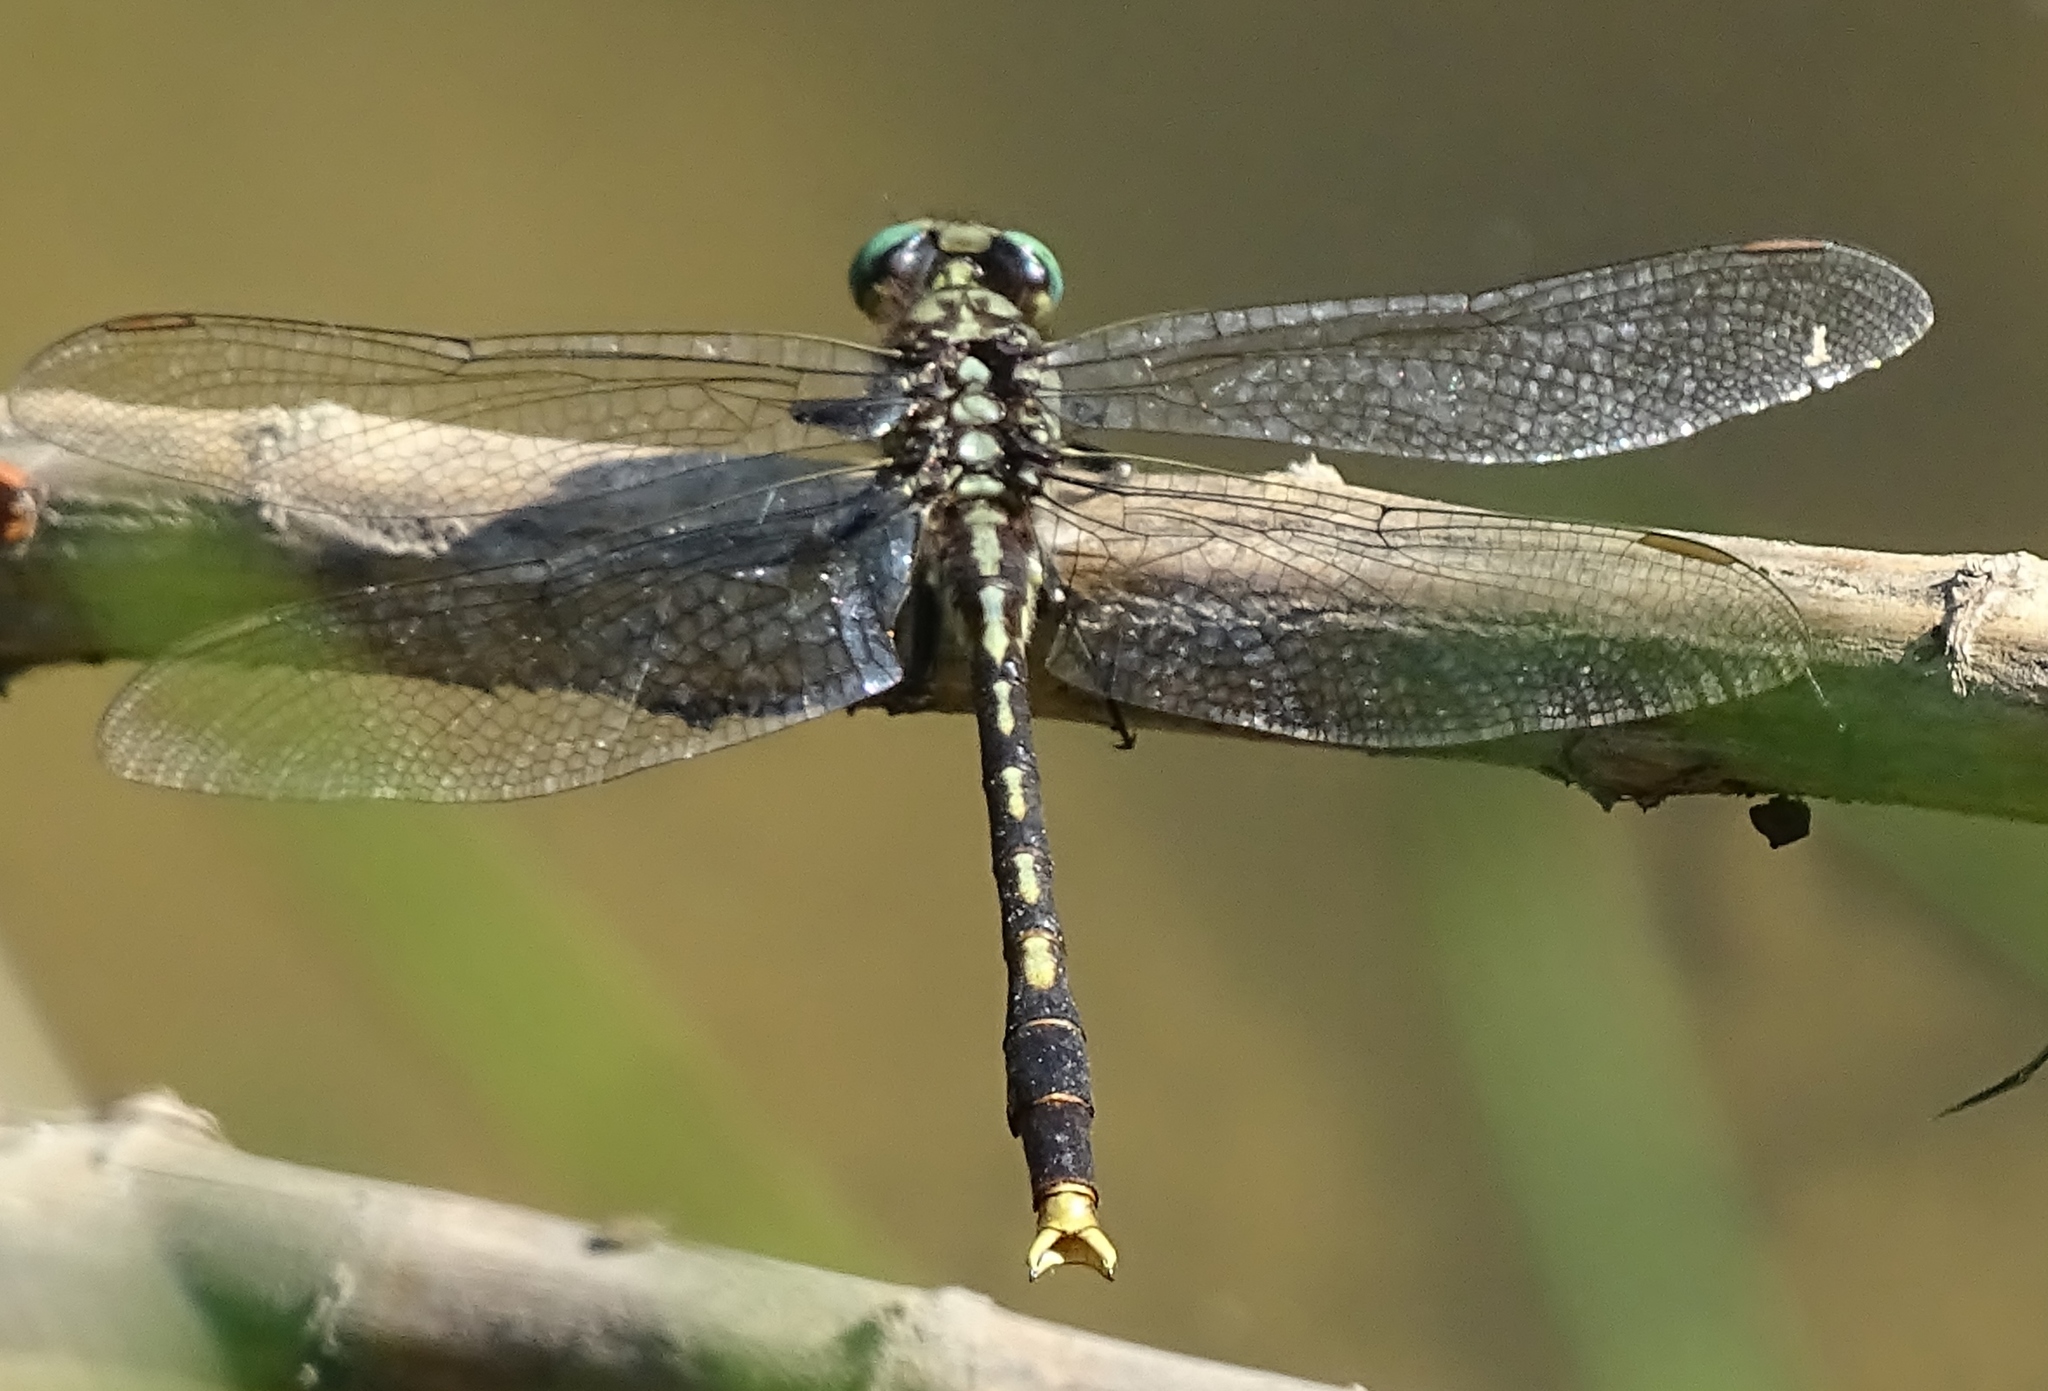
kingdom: Animalia
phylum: Arthropoda
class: Insecta
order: Odonata
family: Gomphidae
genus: Arigomphus
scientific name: Arigomphus villosipes
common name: Unicorn clubtail
